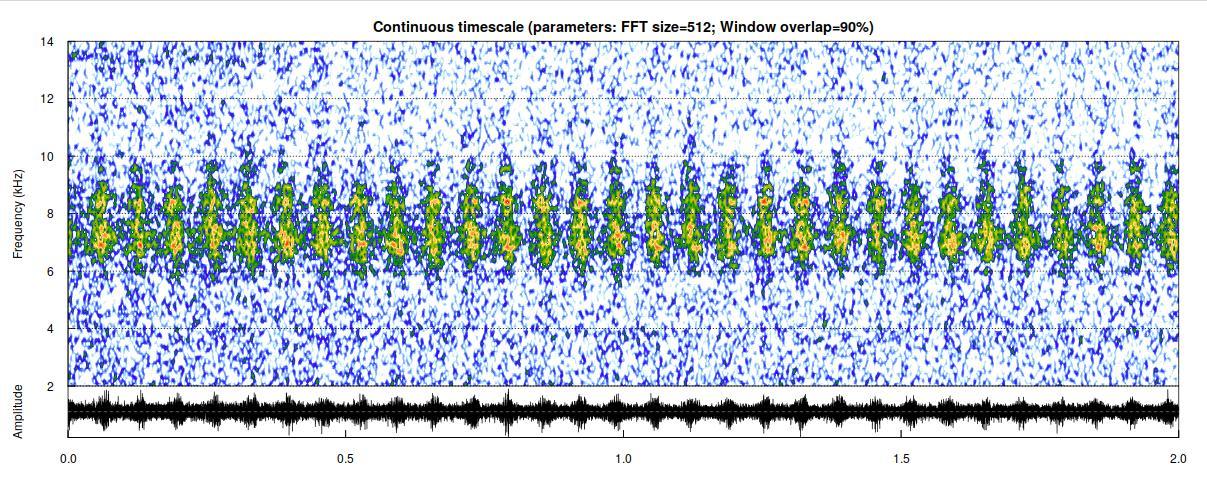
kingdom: Animalia
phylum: Arthropoda
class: Insecta
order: Orthoptera
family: Tettigoniidae
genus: Tettigonia
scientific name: Tettigonia cantans
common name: Upland green bush-cricket
